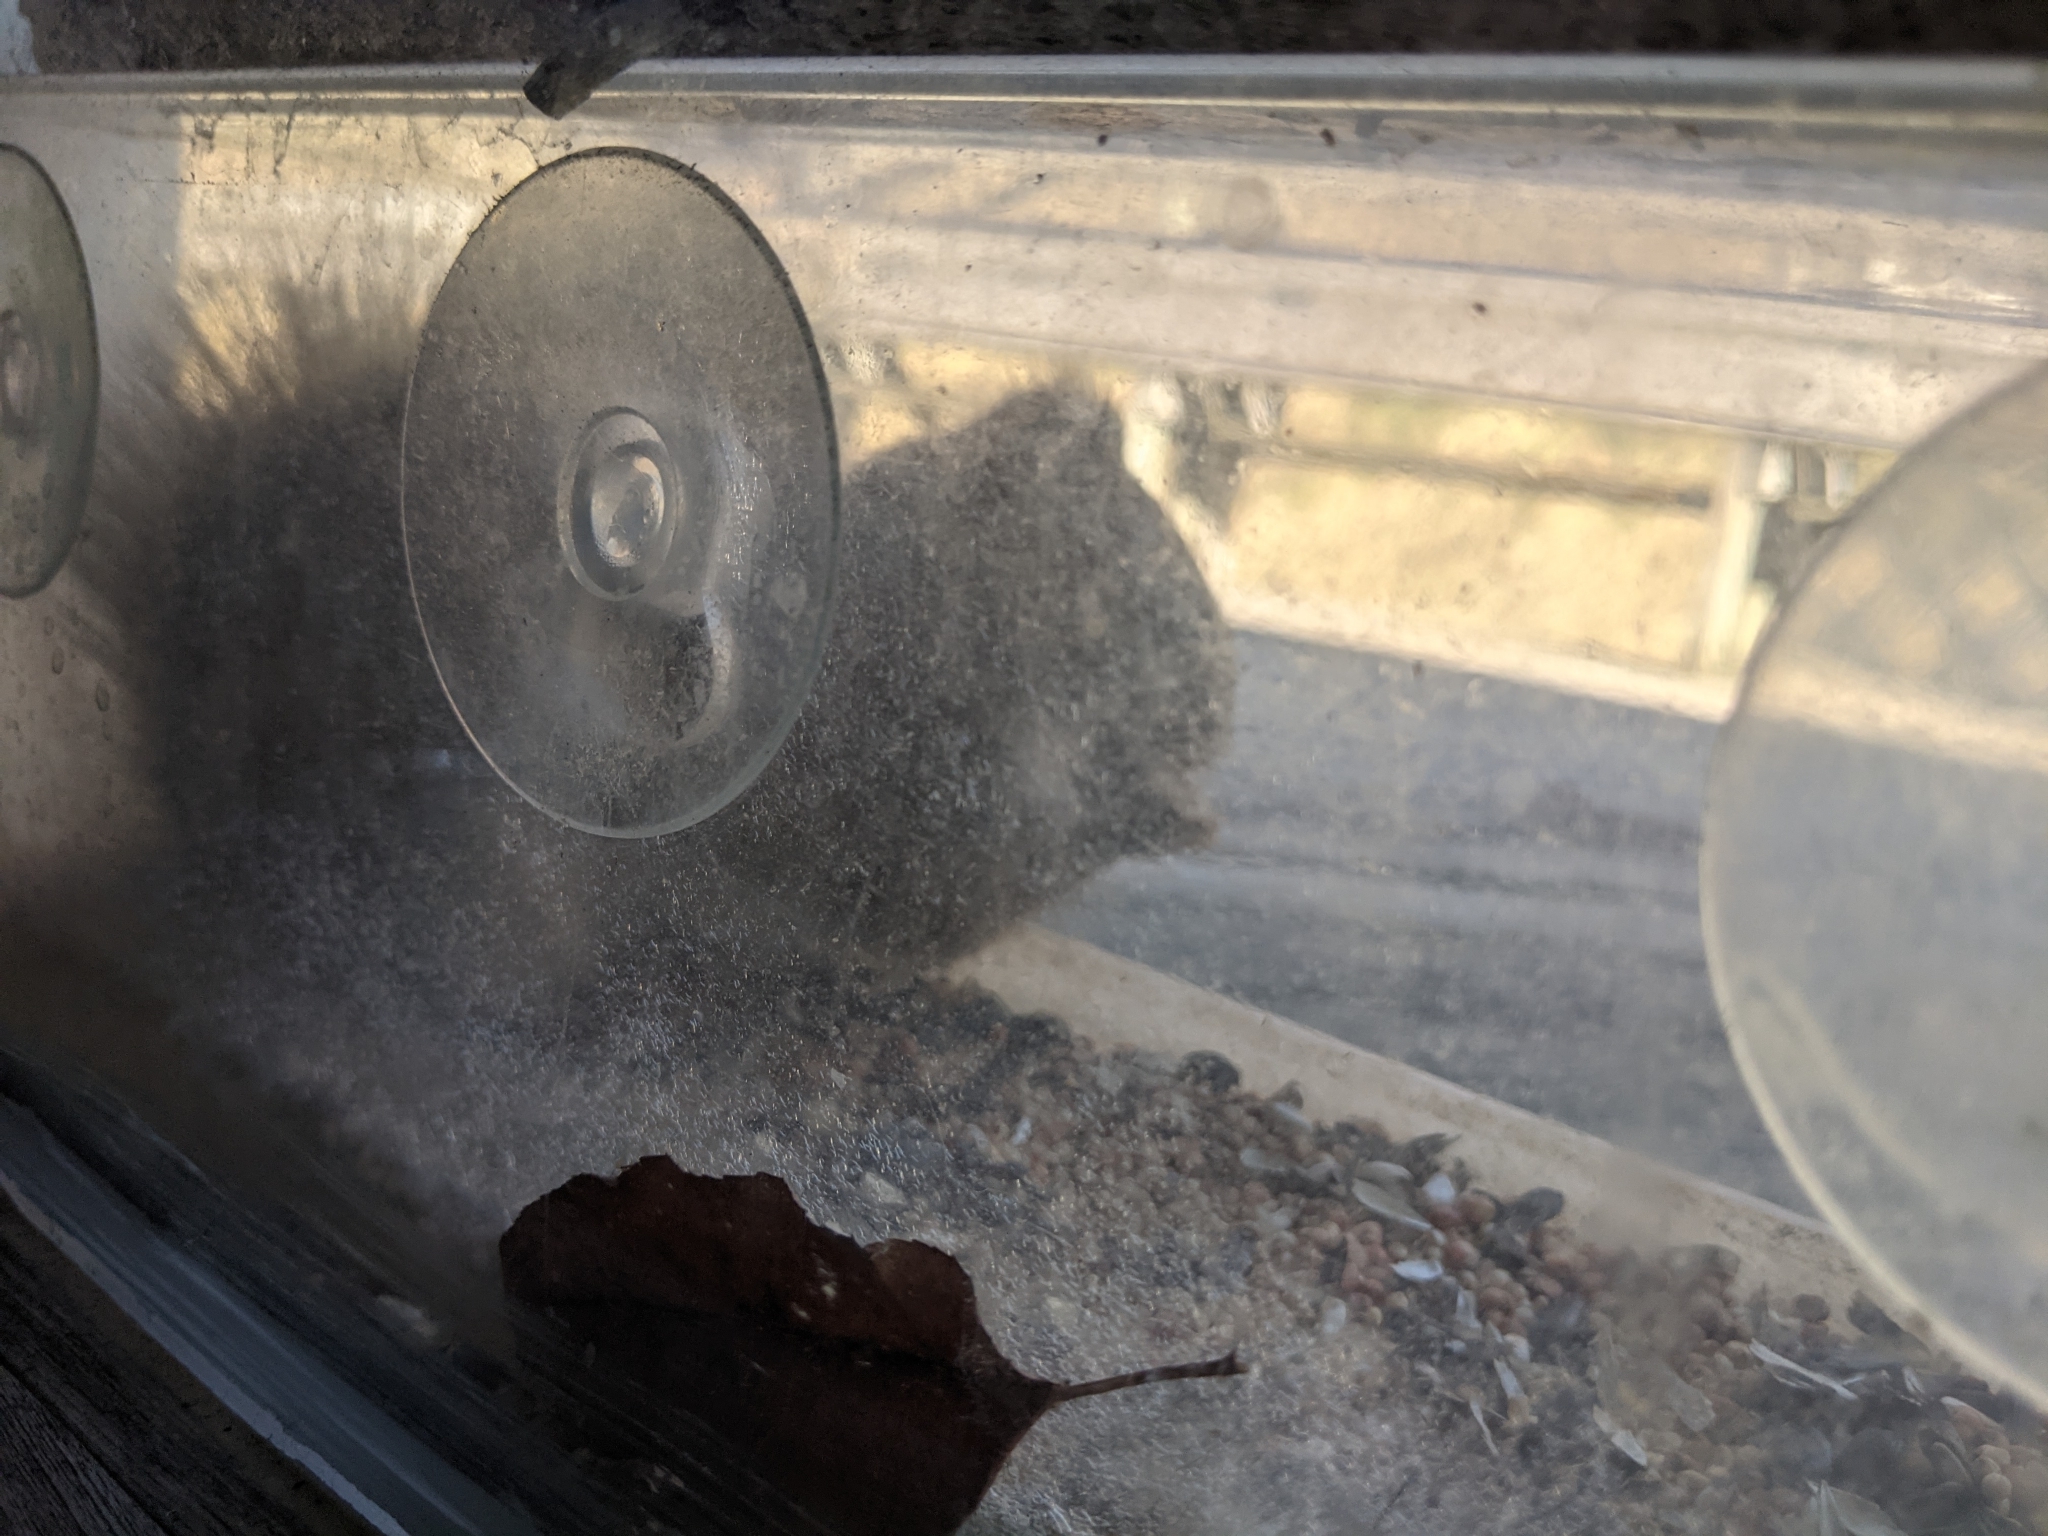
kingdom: Animalia
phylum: Chordata
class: Mammalia
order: Rodentia
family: Sciuridae
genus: Tamiasciurus
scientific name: Tamiasciurus hudsonicus
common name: Red squirrel
